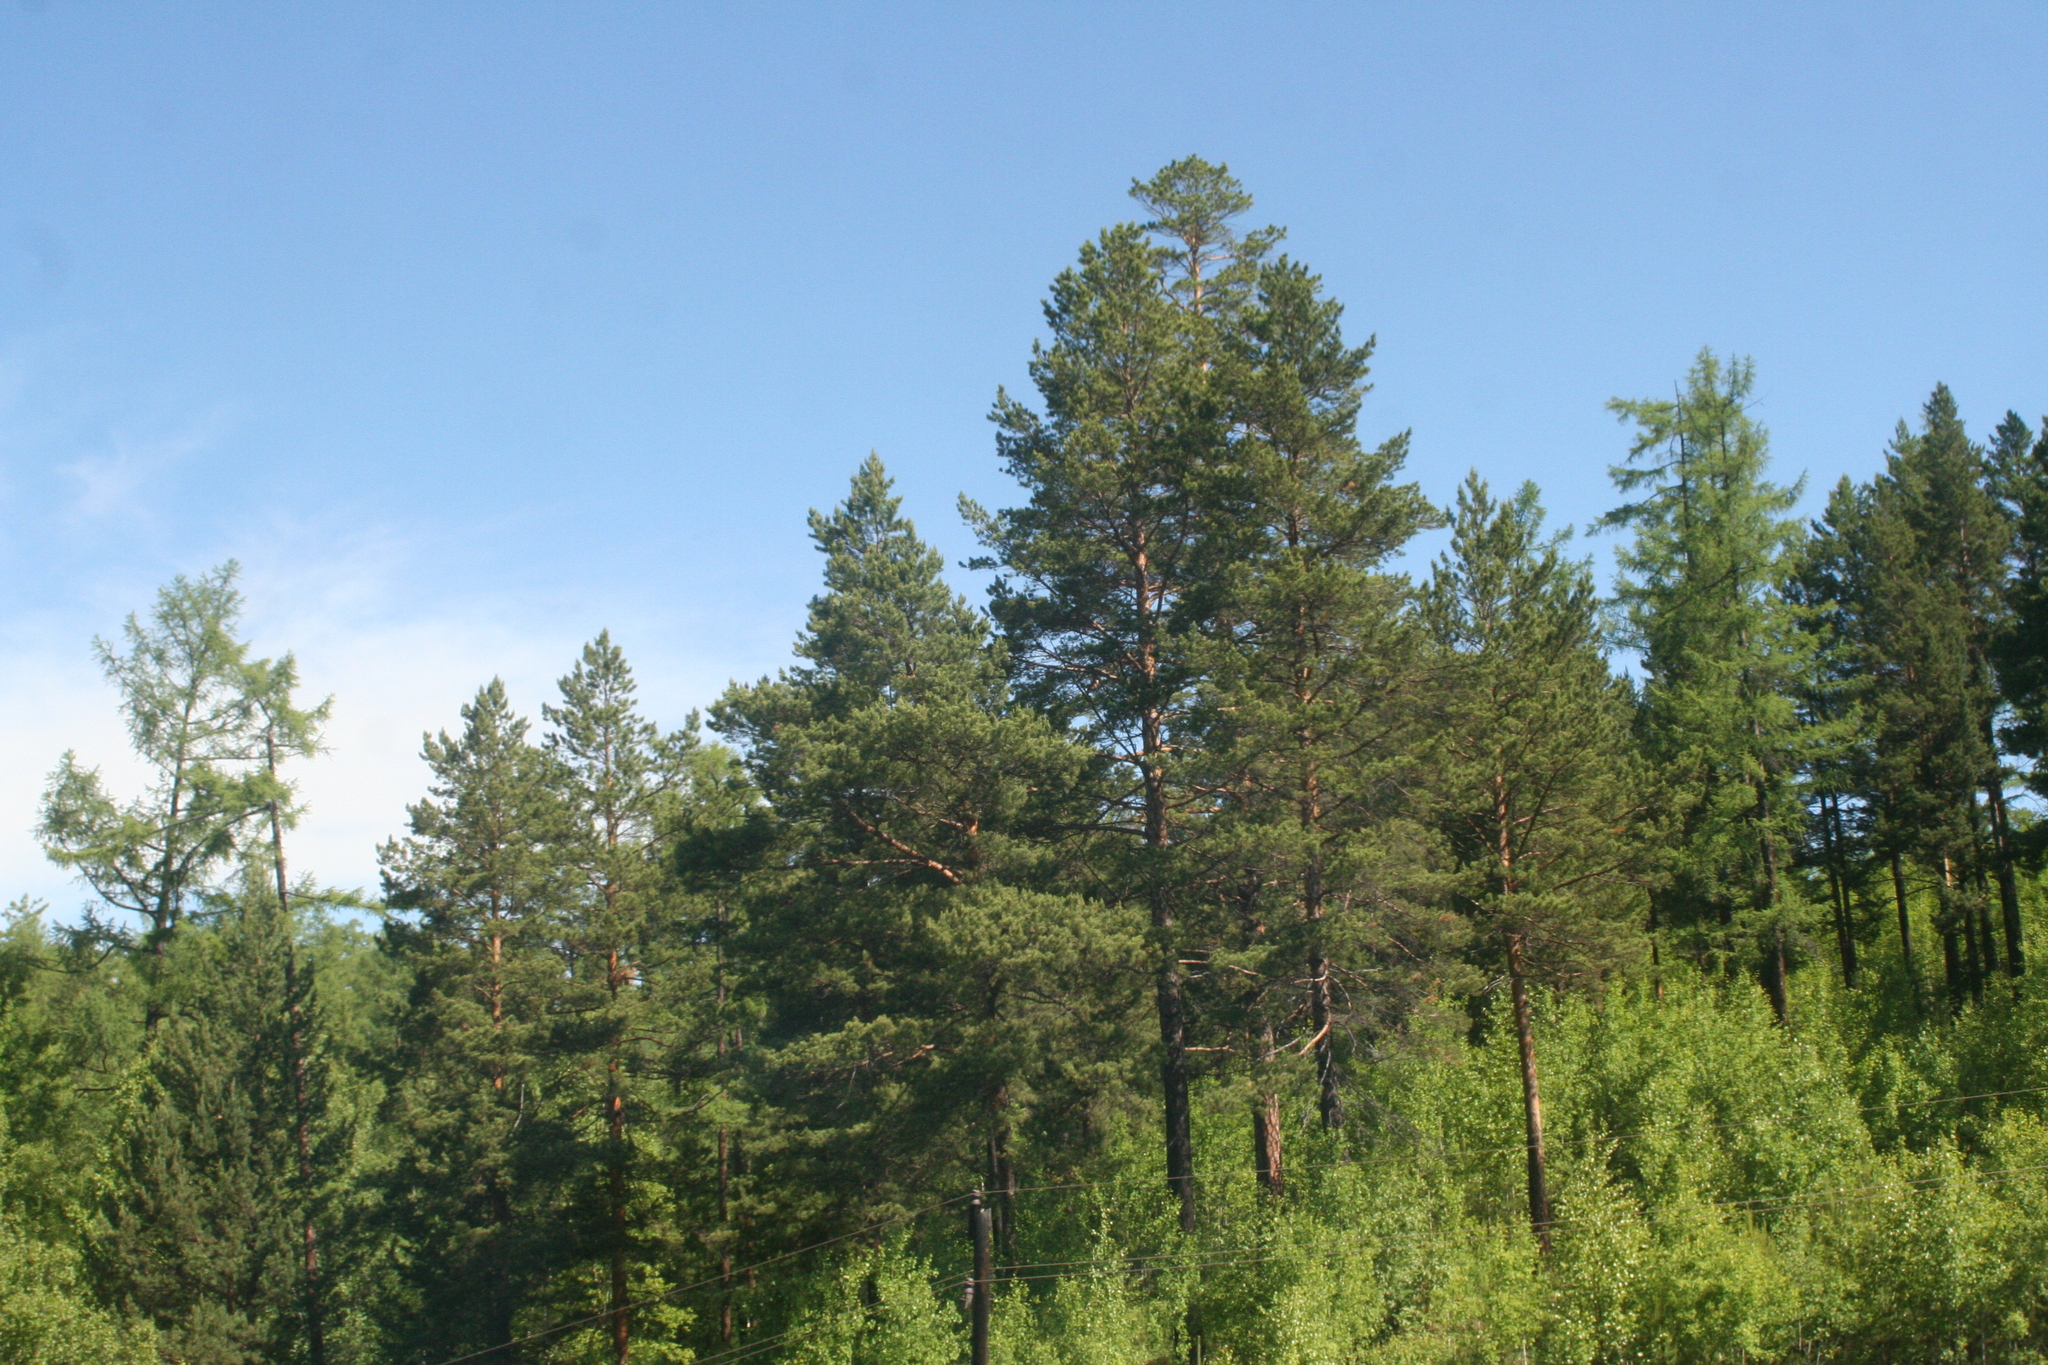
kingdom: Plantae
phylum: Tracheophyta
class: Pinopsida
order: Pinales
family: Pinaceae
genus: Pinus
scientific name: Pinus sylvestris
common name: Scots pine
